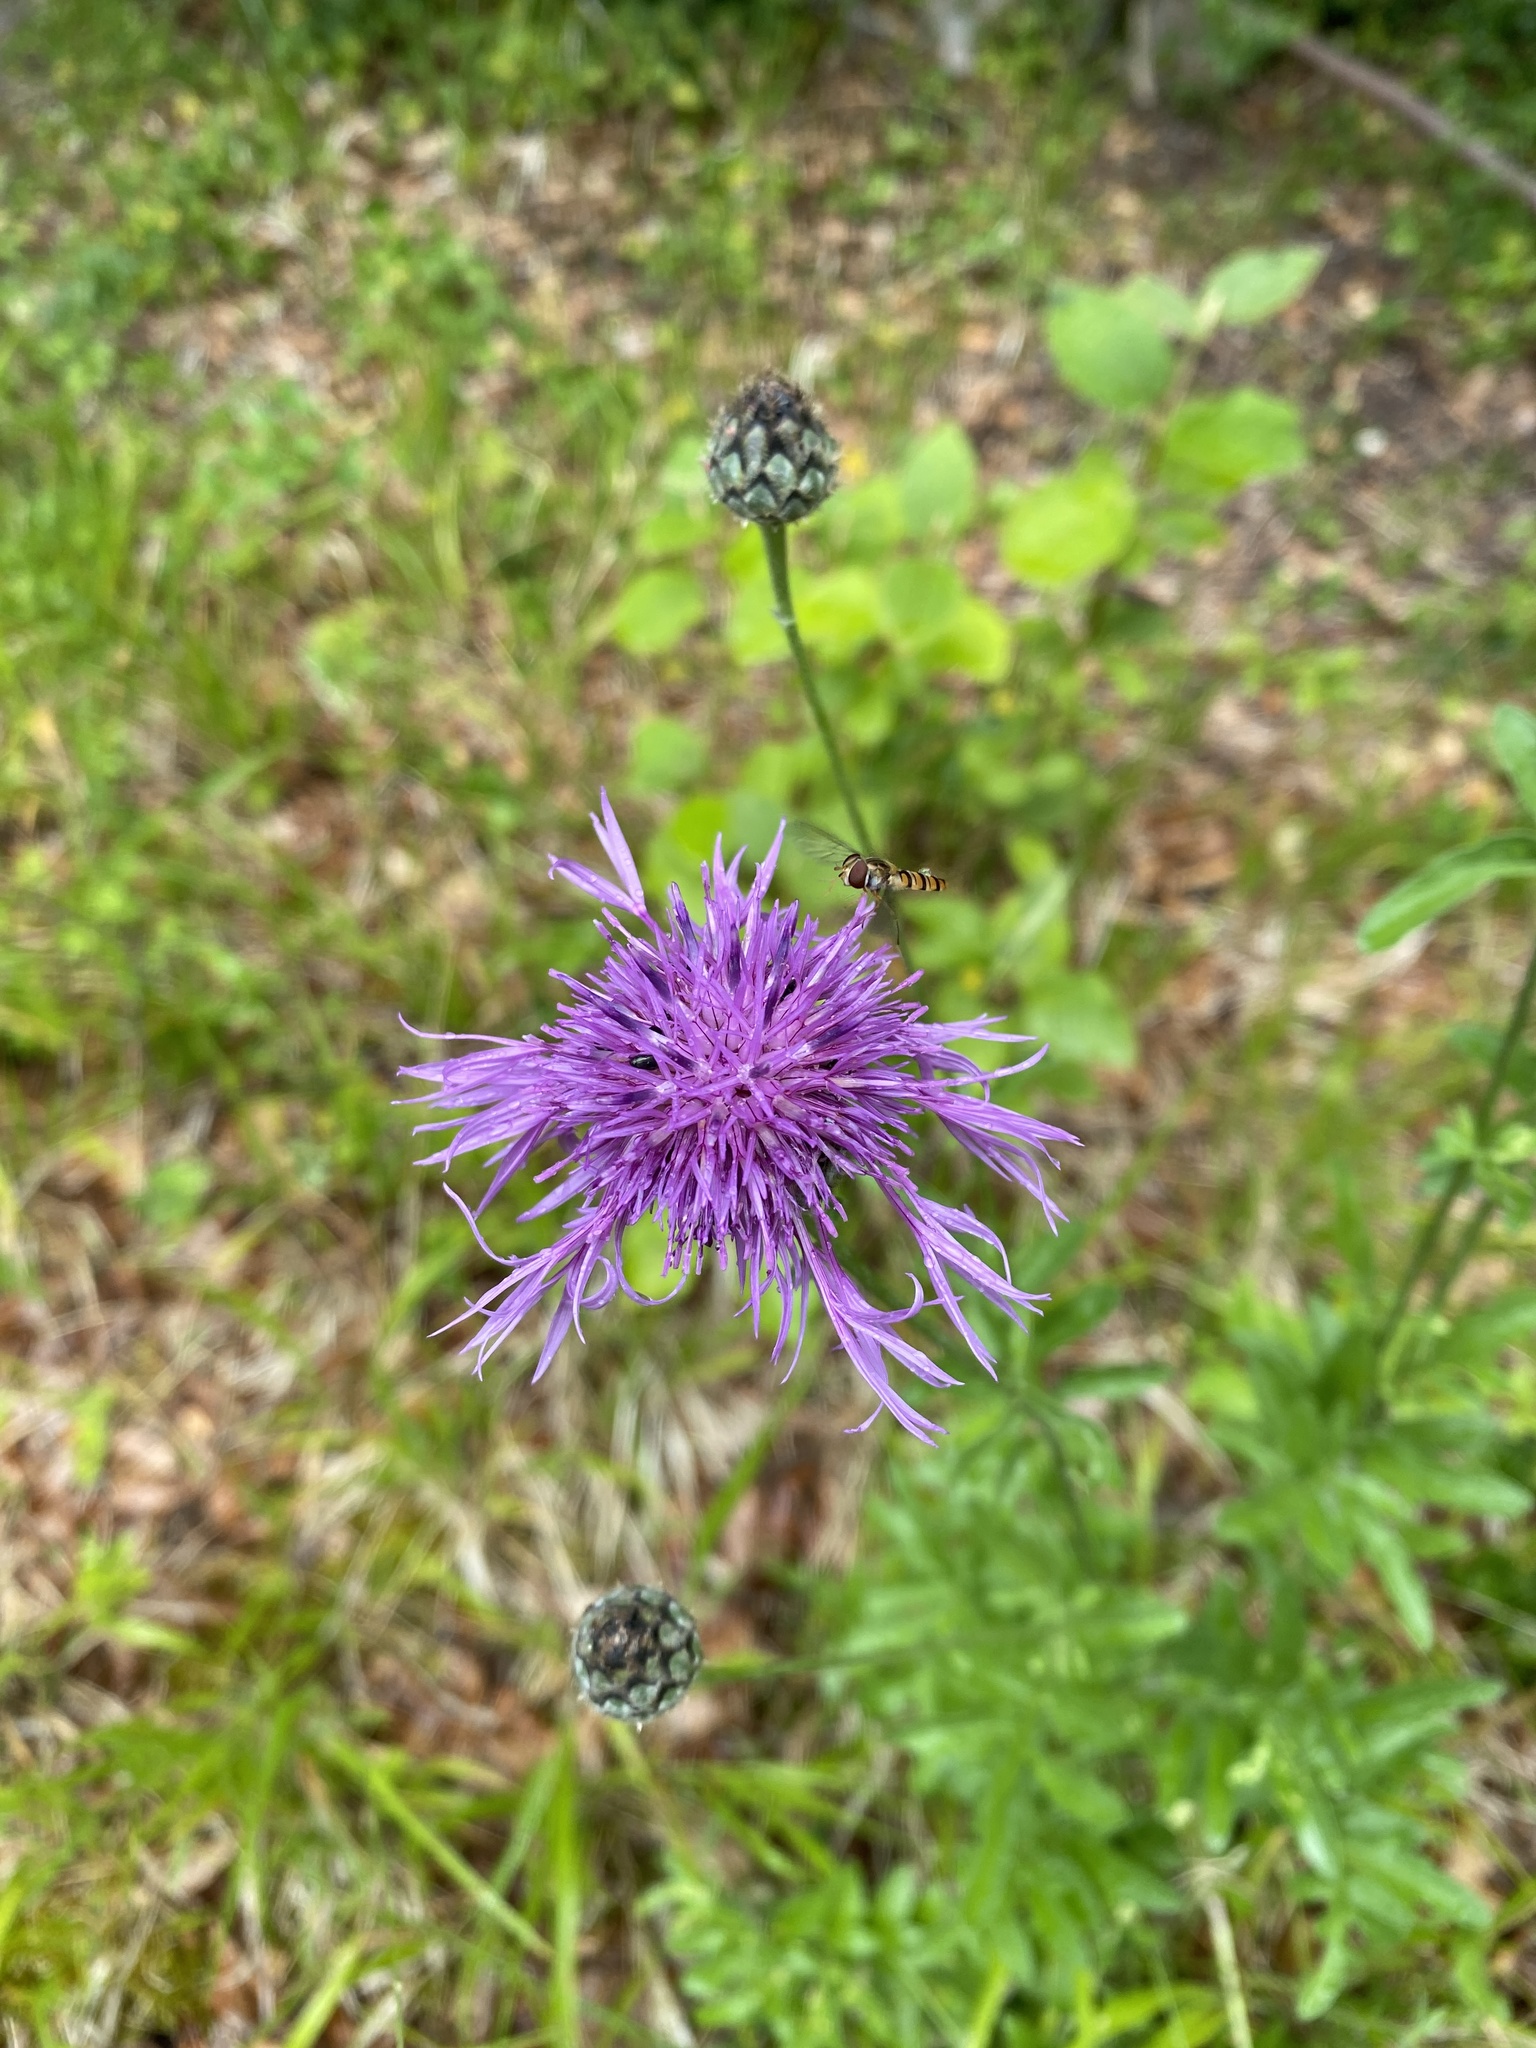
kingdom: Plantae
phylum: Tracheophyta
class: Magnoliopsida
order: Asterales
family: Asteraceae
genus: Centaurea
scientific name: Centaurea scabiosa
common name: Greater knapweed
